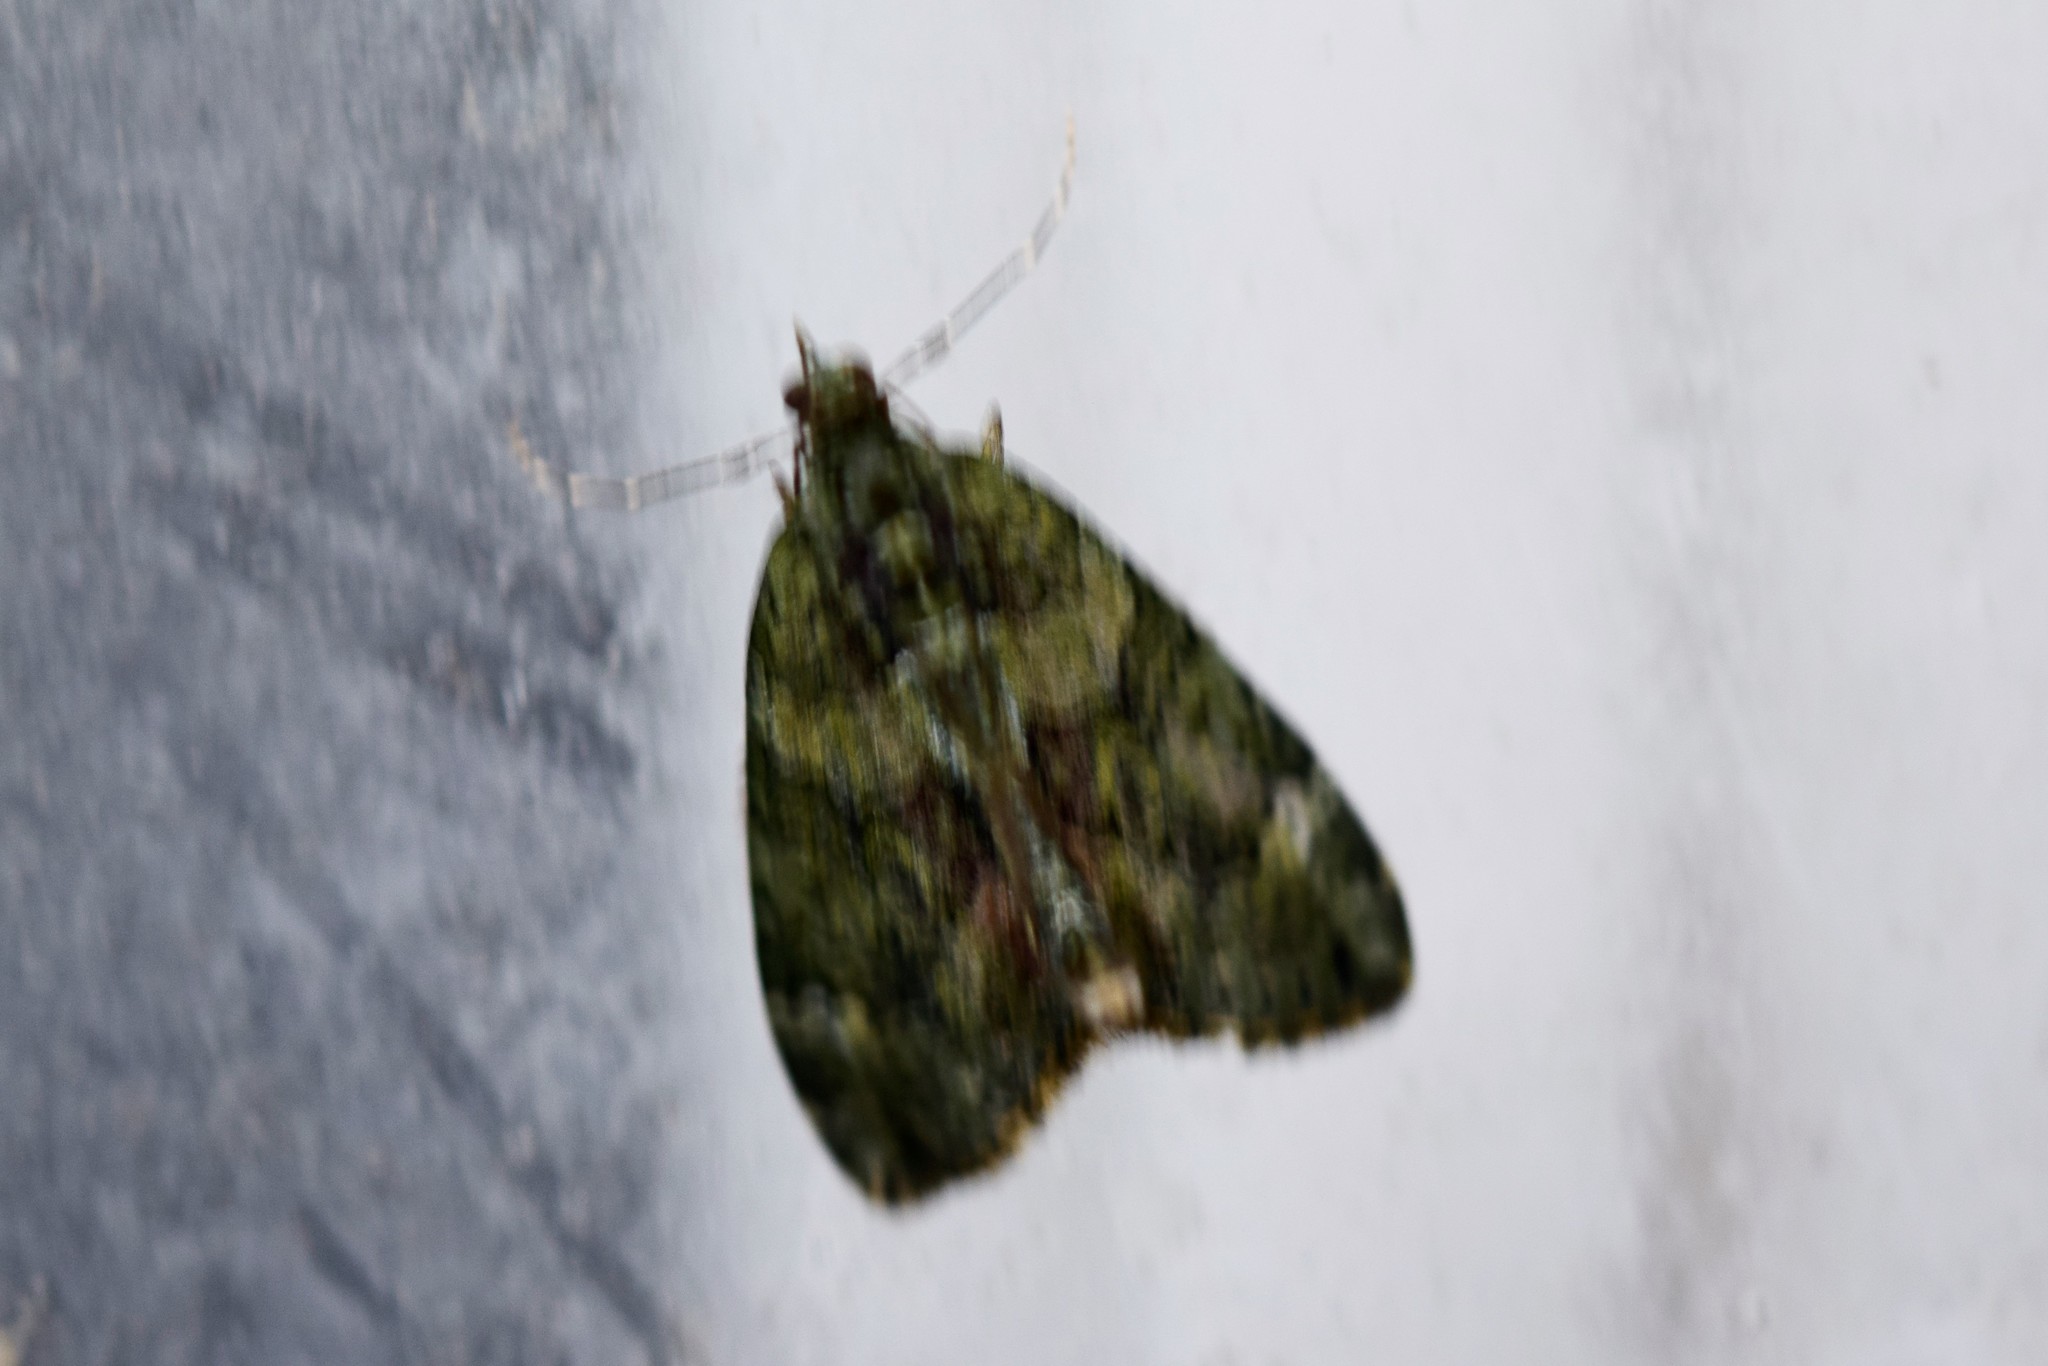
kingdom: Animalia
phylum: Arthropoda
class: Insecta
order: Lepidoptera
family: Geometridae
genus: Chloroclysta
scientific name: Chloroclysta siterata
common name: Red-green carpet
